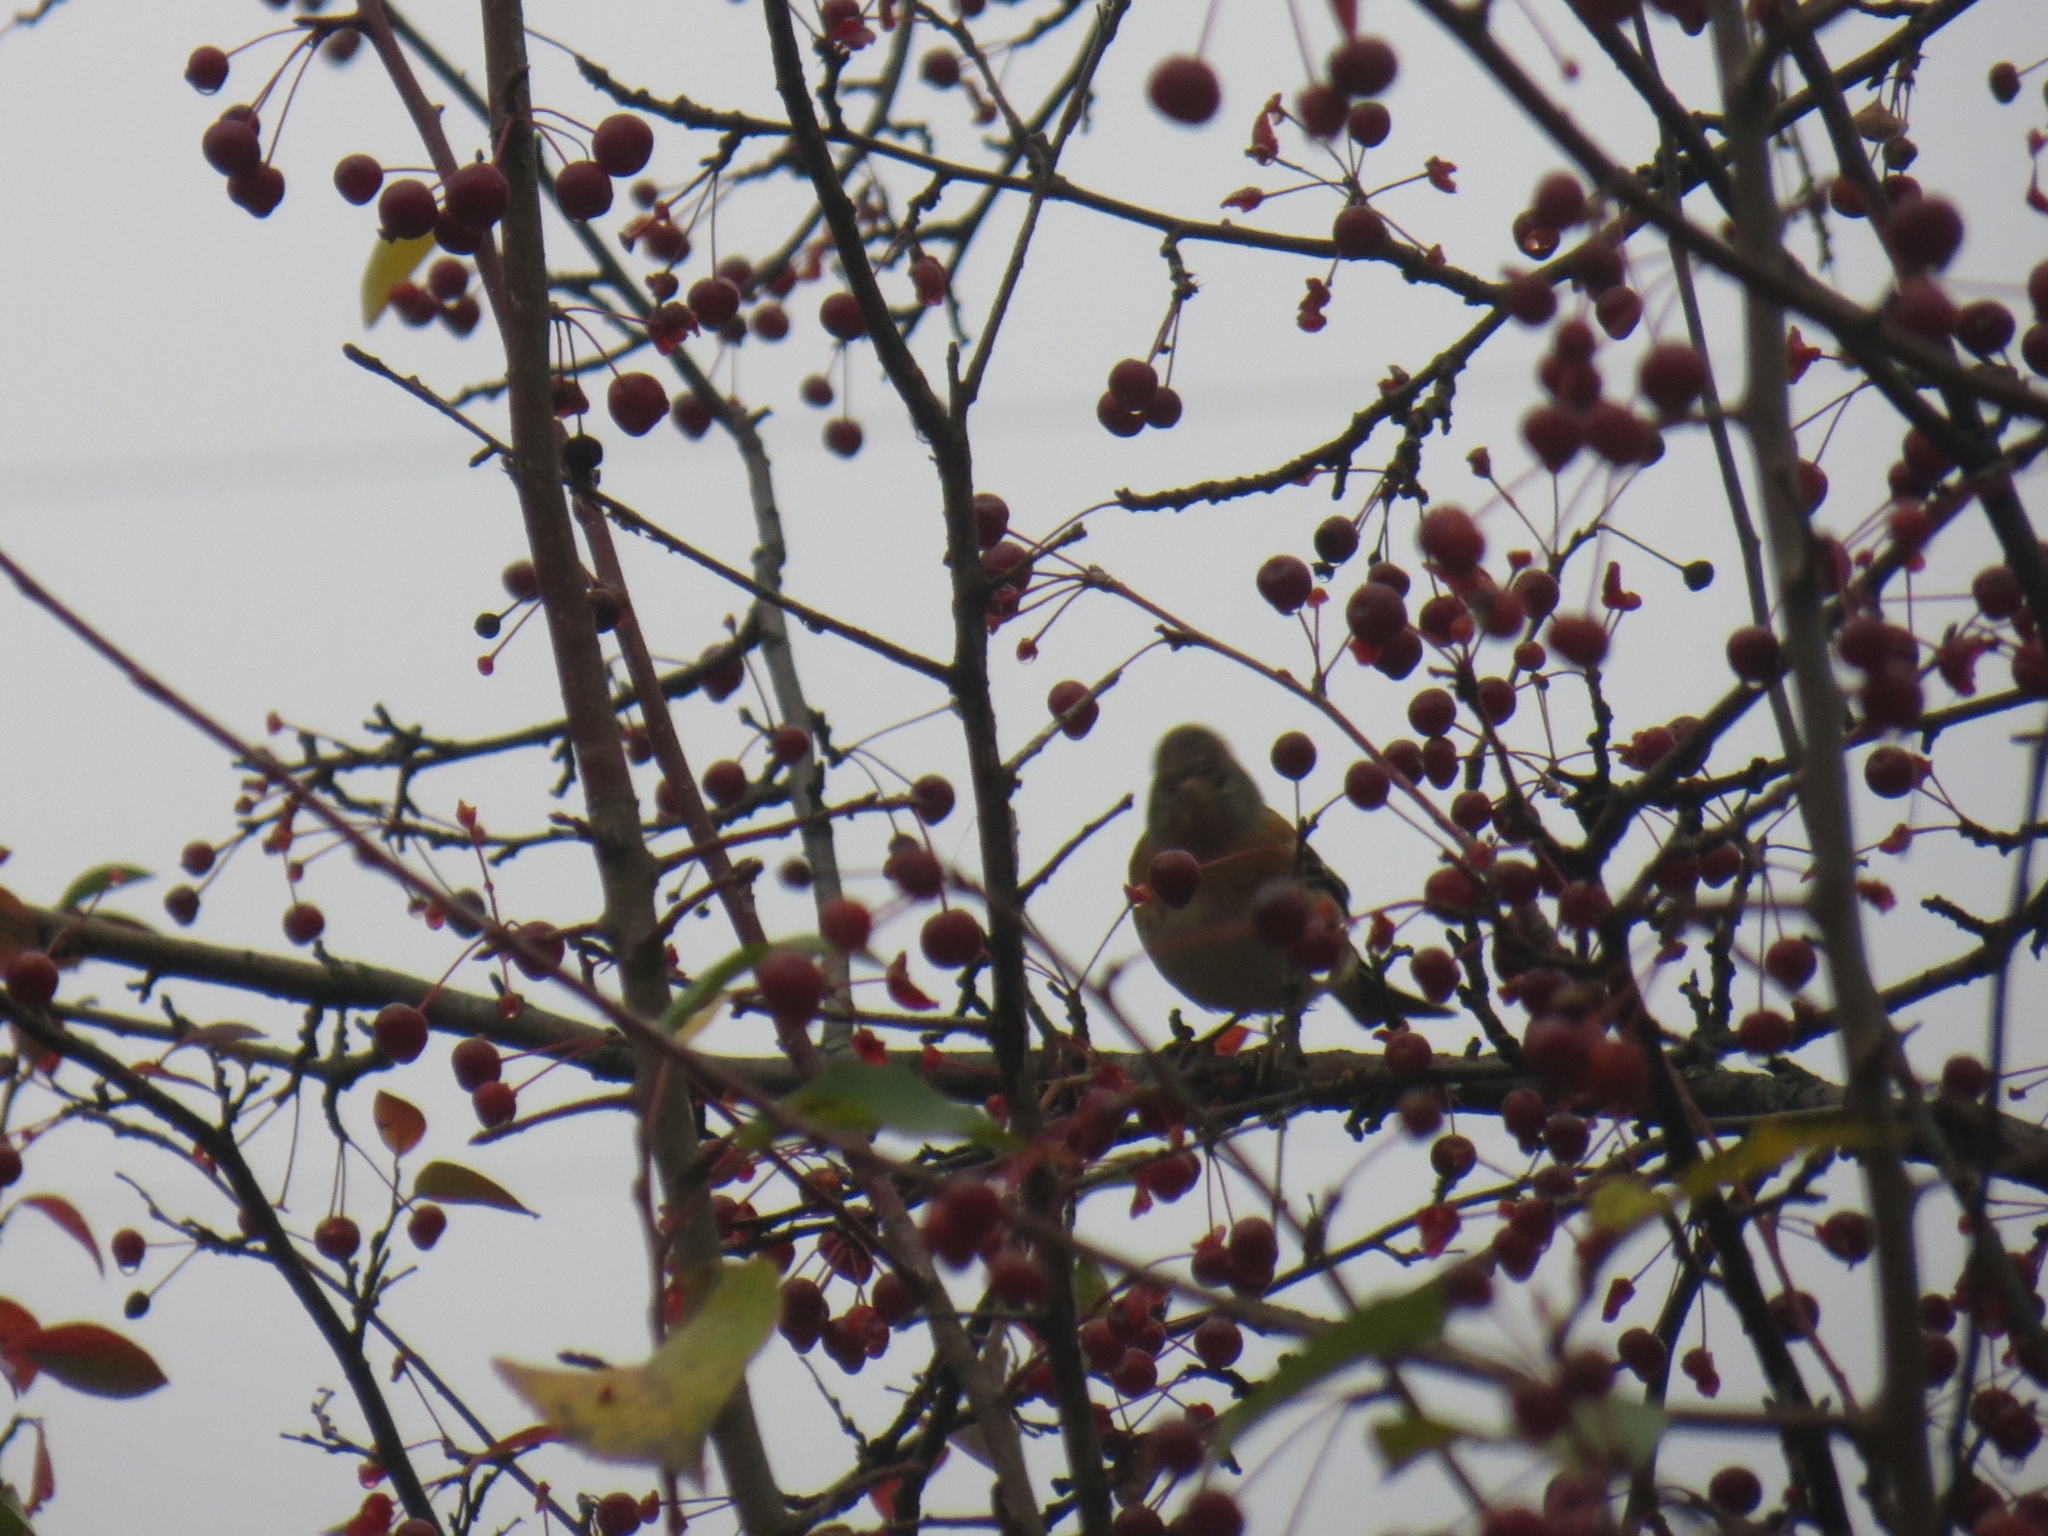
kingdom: Animalia
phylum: Chordata
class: Aves
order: Passeriformes
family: Fringillidae
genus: Fringilla
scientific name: Fringilla montifringilla
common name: Brambling
